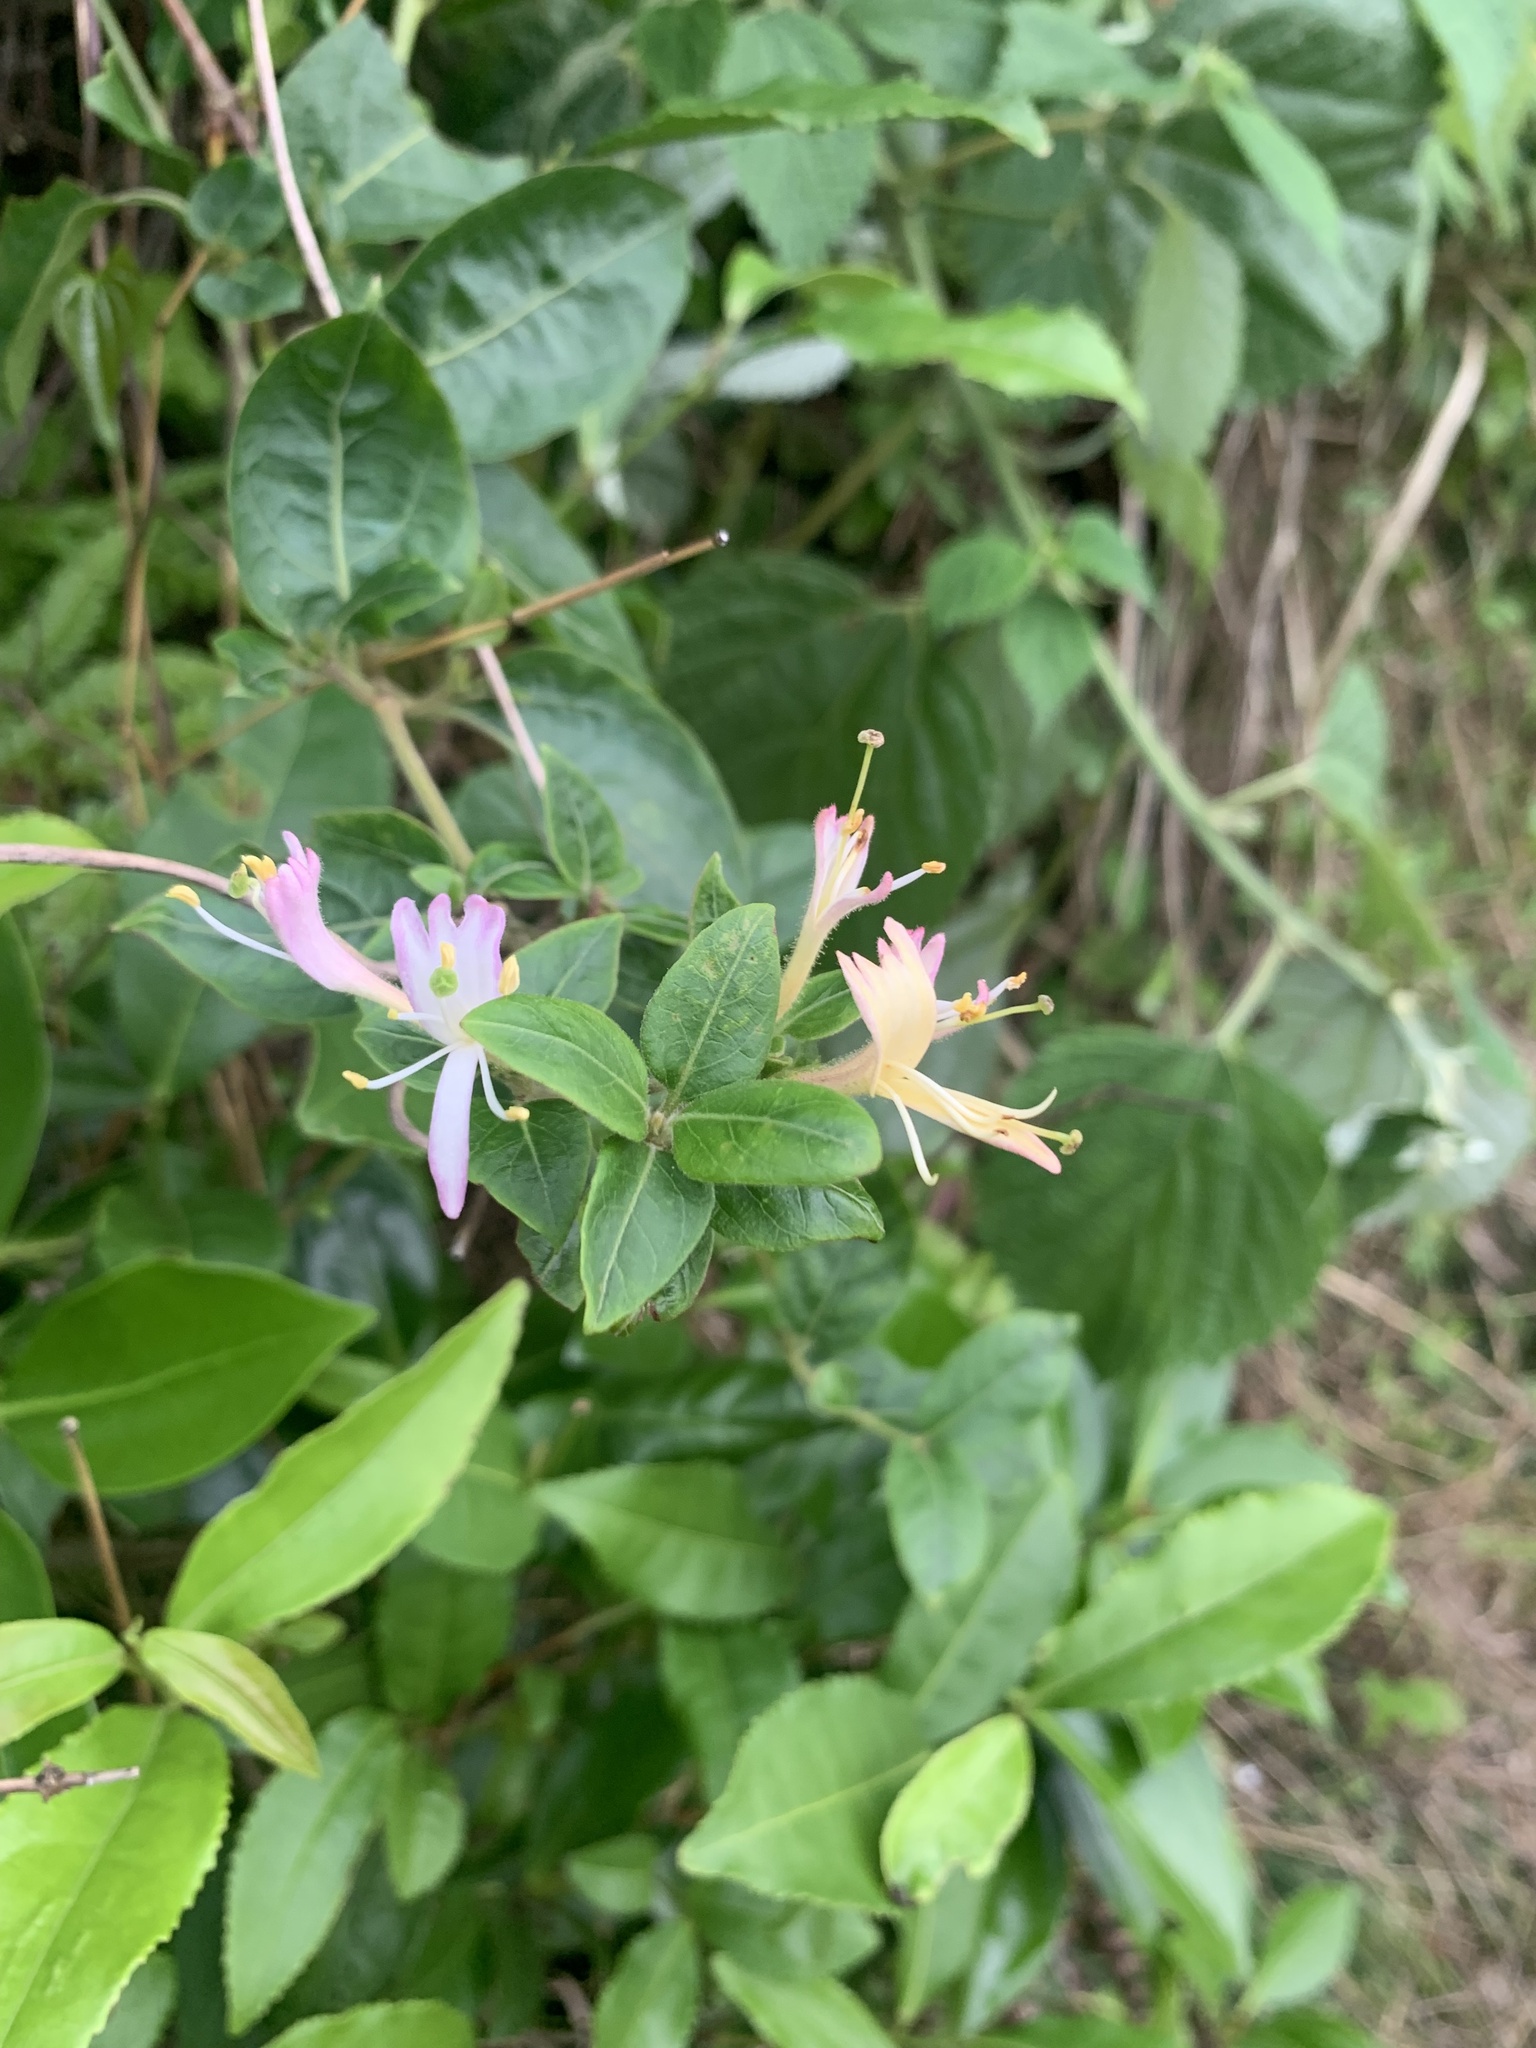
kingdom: Plantae
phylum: Tracheophyta
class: Magnoliopsida
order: Dipsacales
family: Caprifoliaceae
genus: Lonicera
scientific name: Lonicera japonica
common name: Japanese honeysuckle
